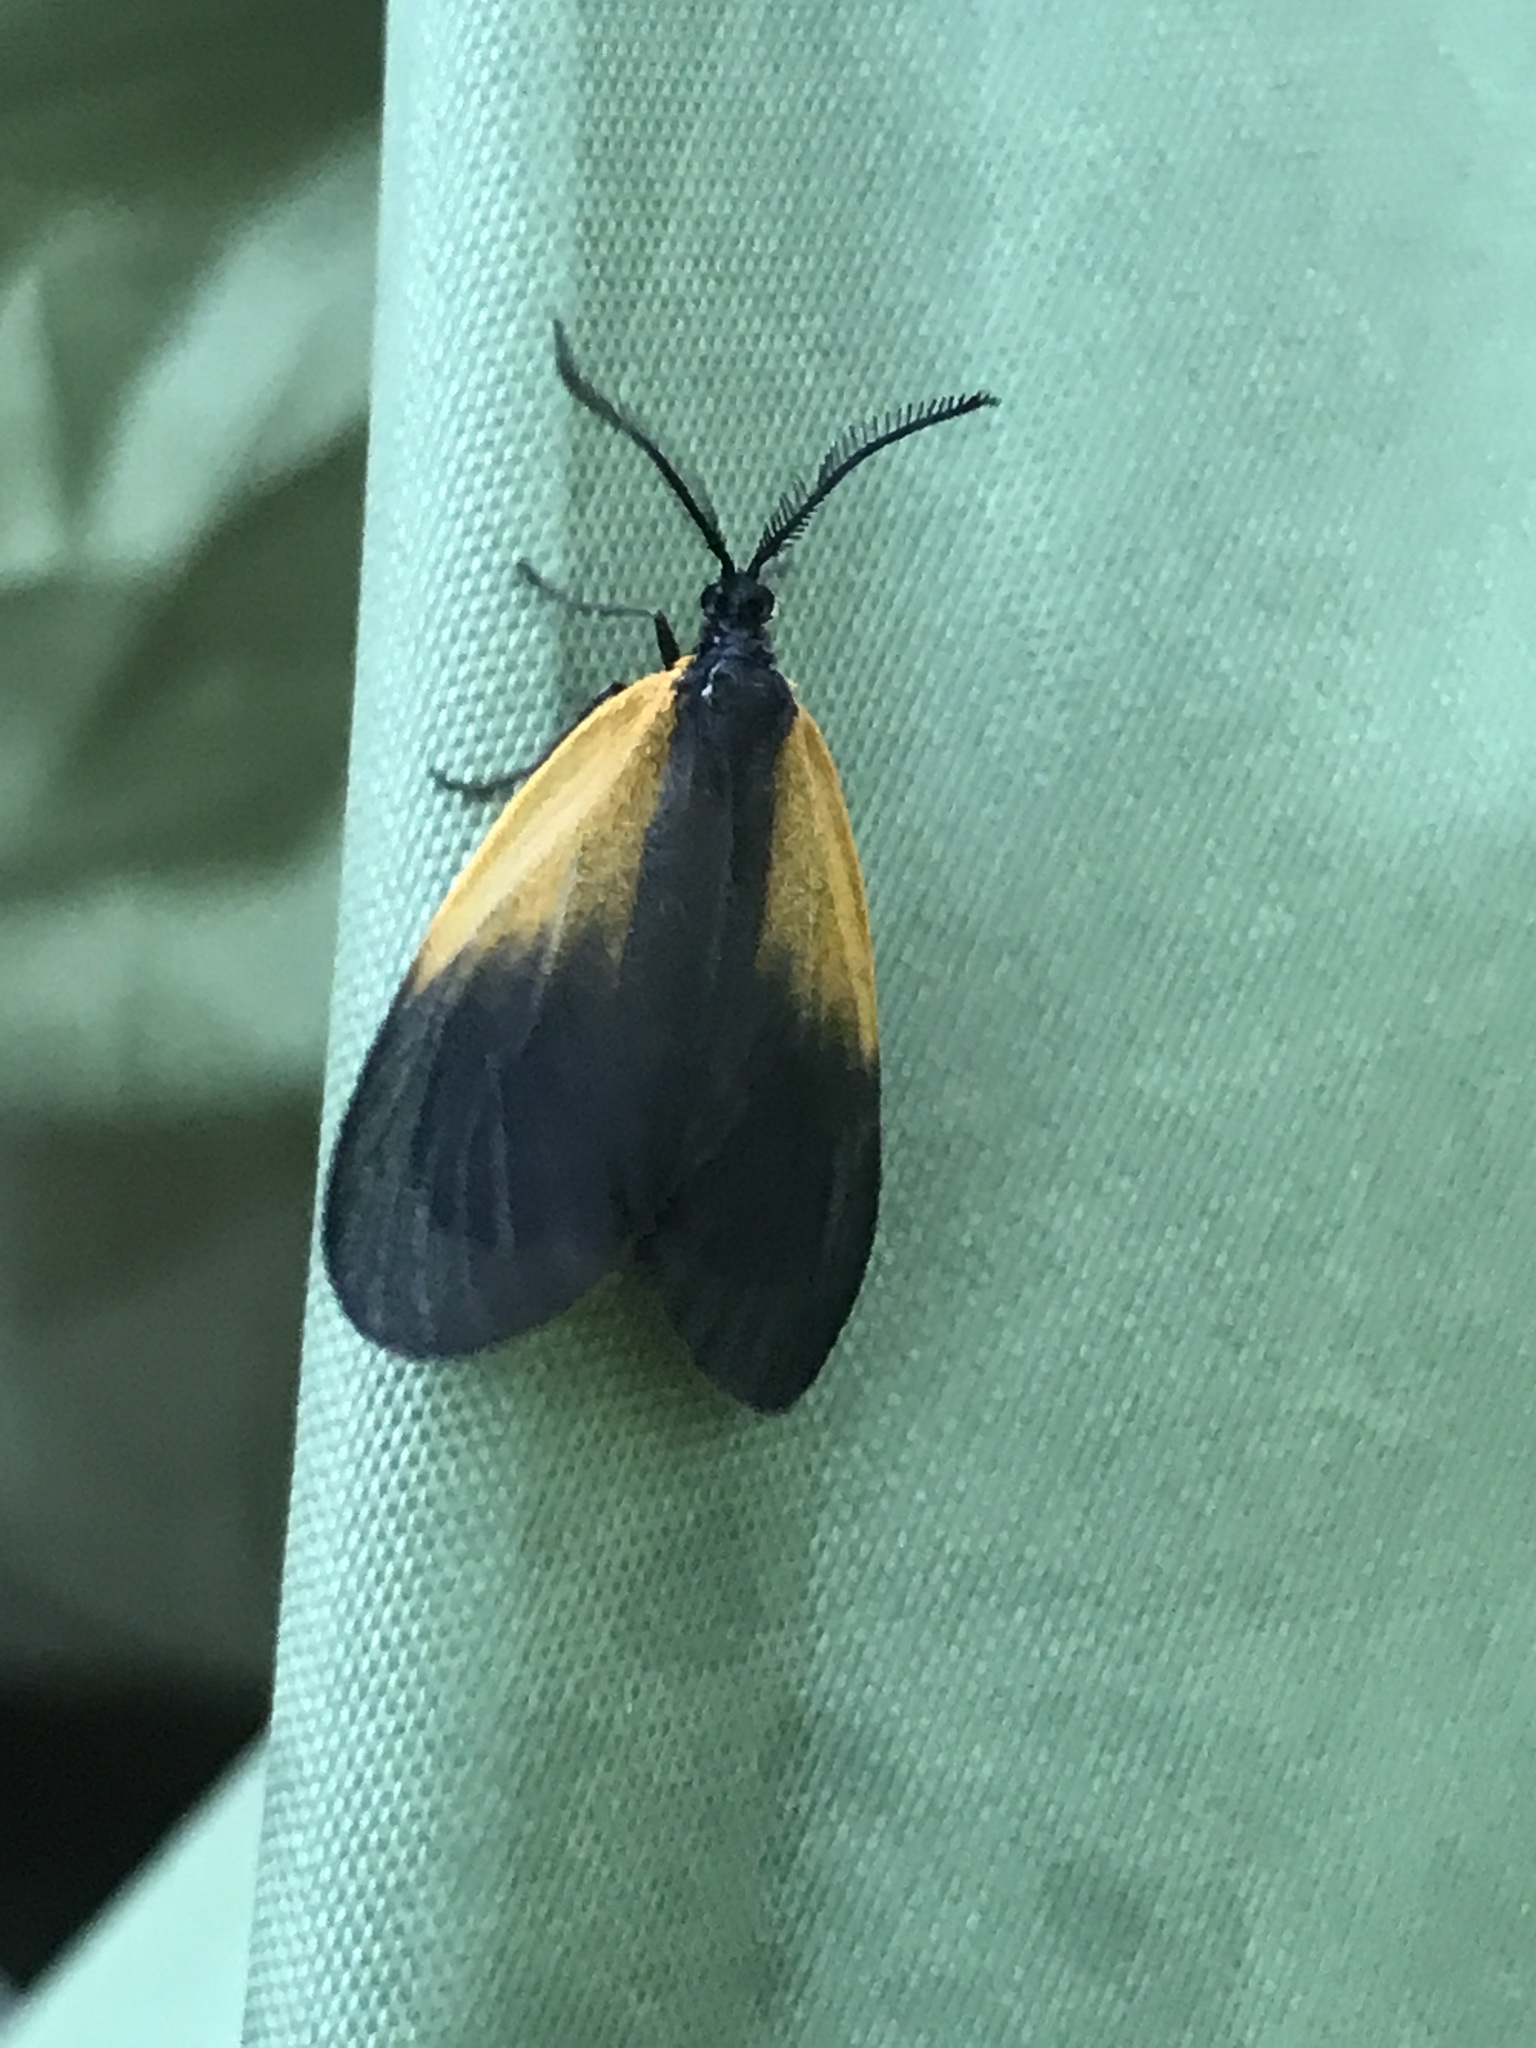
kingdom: Animalia
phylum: Arthropoda
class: Insecta
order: Lepidoptera
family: Zygaenidae
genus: Malthaca
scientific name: Malthaca dimidiata
